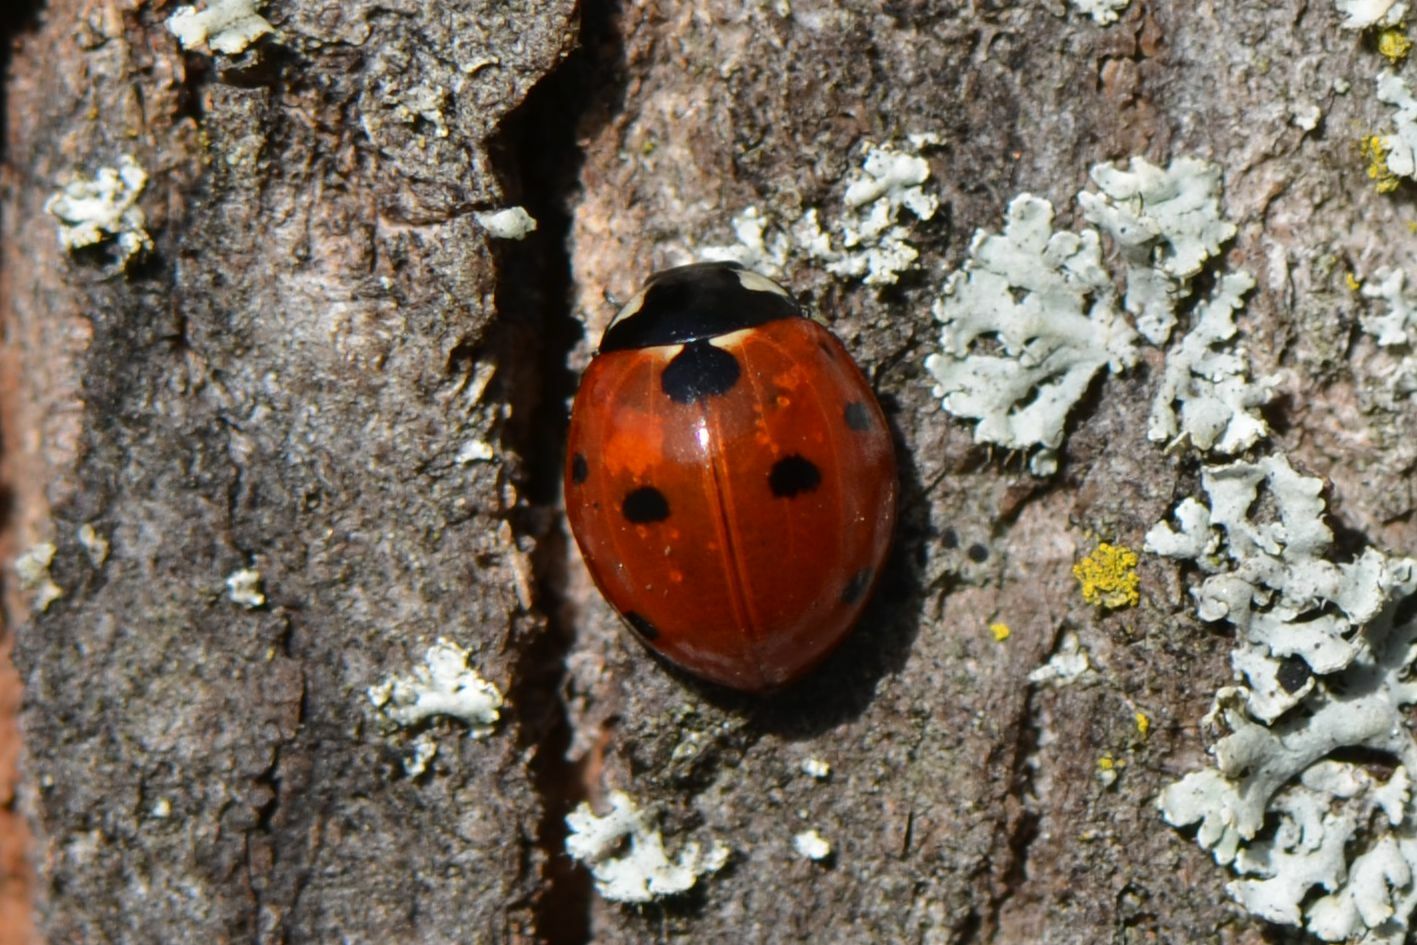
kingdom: Animalia
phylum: Arthropoda
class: Insecta
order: Coleoptera
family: Coccinellidae
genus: Coccinella
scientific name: Coccinella septempunctata
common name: Sevenspotted lady beetle
